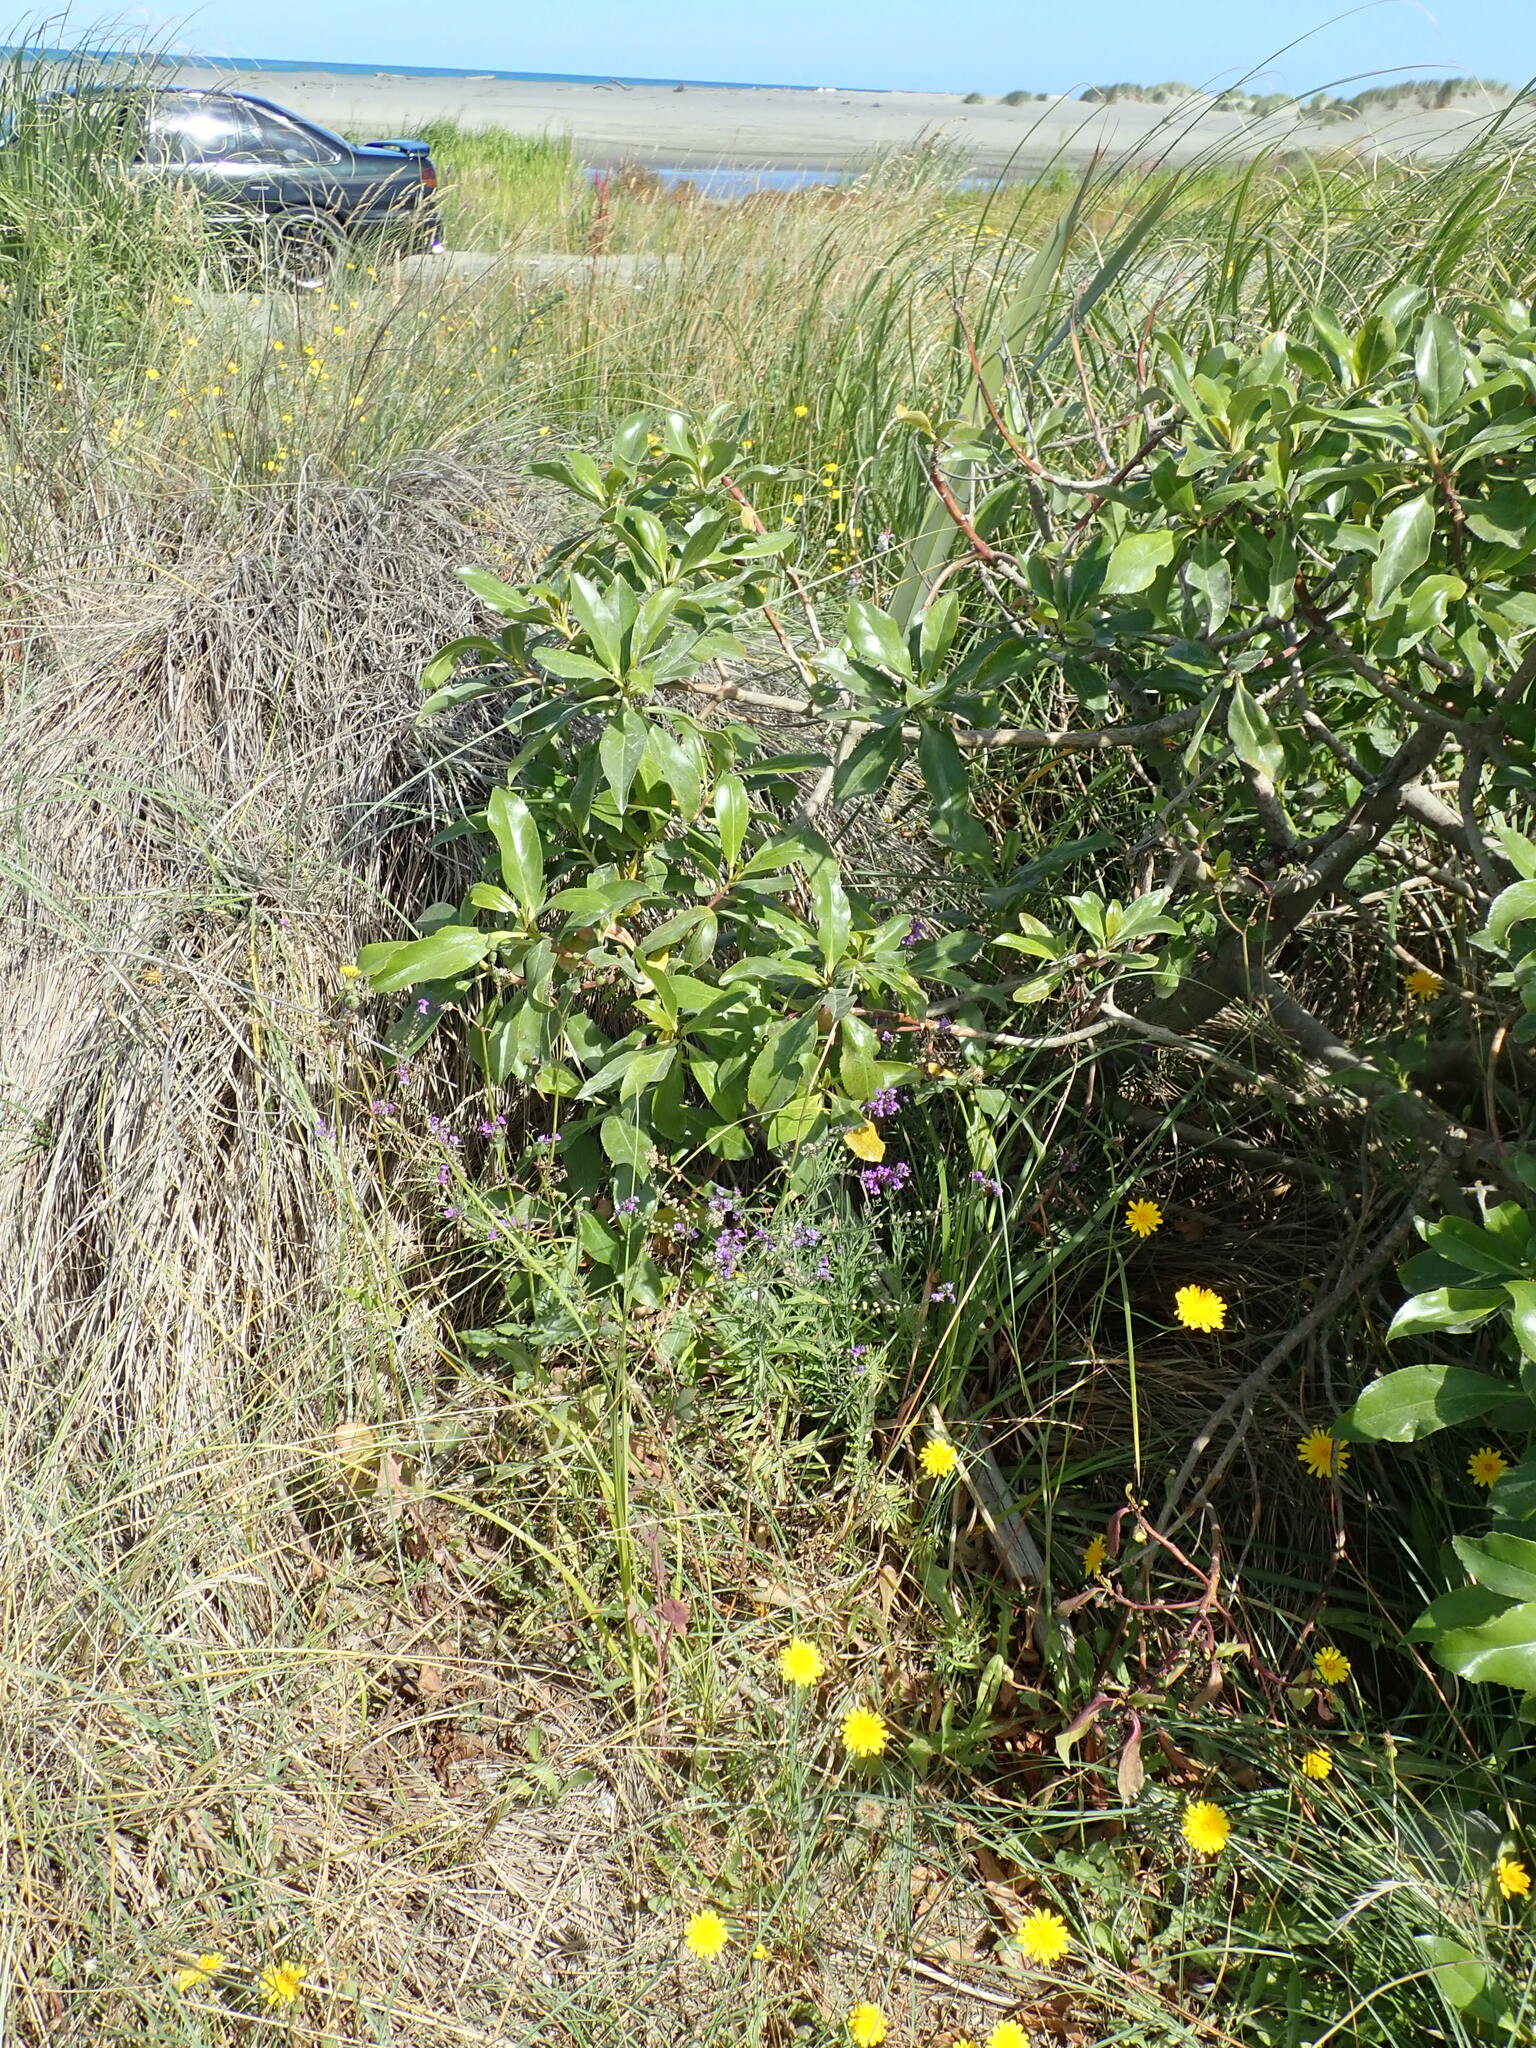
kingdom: Plantae
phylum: Tracheophyta
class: Magnoliopsida
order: Lamiales
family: Plantaginaceae
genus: Linaria
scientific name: Linaria purpurea
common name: Purple toadflax
